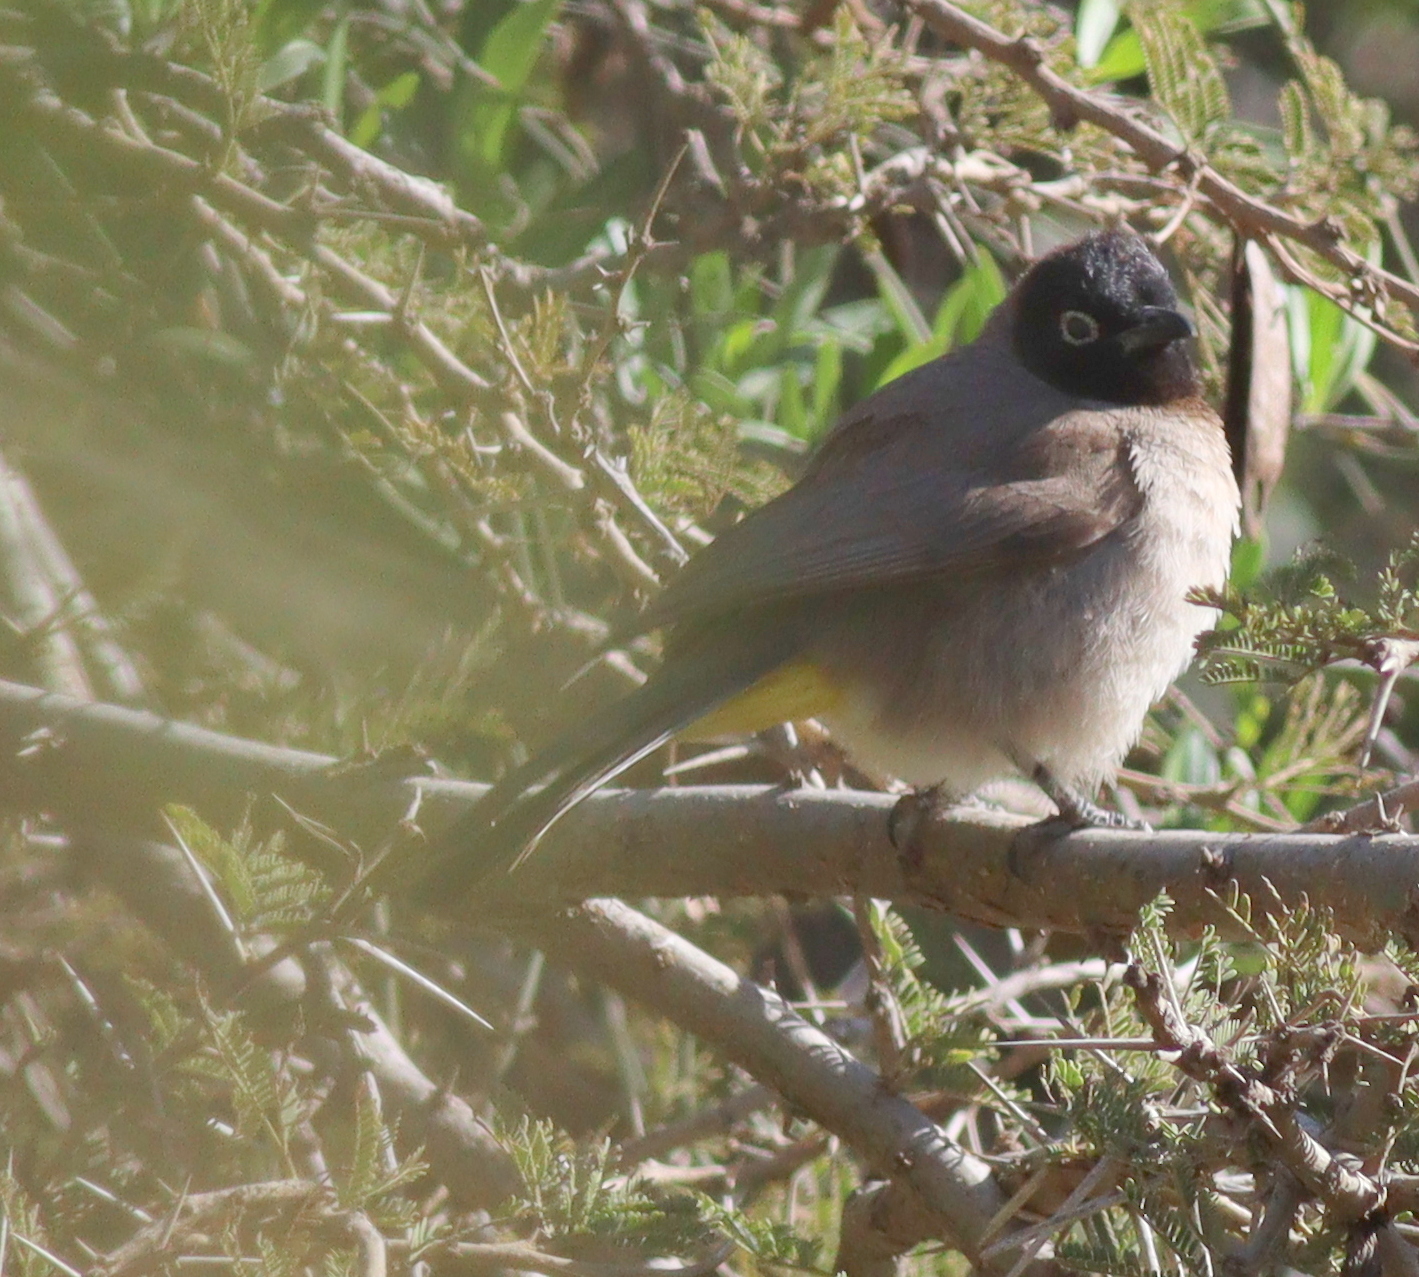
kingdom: Animalia
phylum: Chordata
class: Aves
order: Passeriformes
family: Pycnonotidae
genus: Pycnonotus
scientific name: Pycnonotus xanthopygos
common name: White-spectacled bulbul
